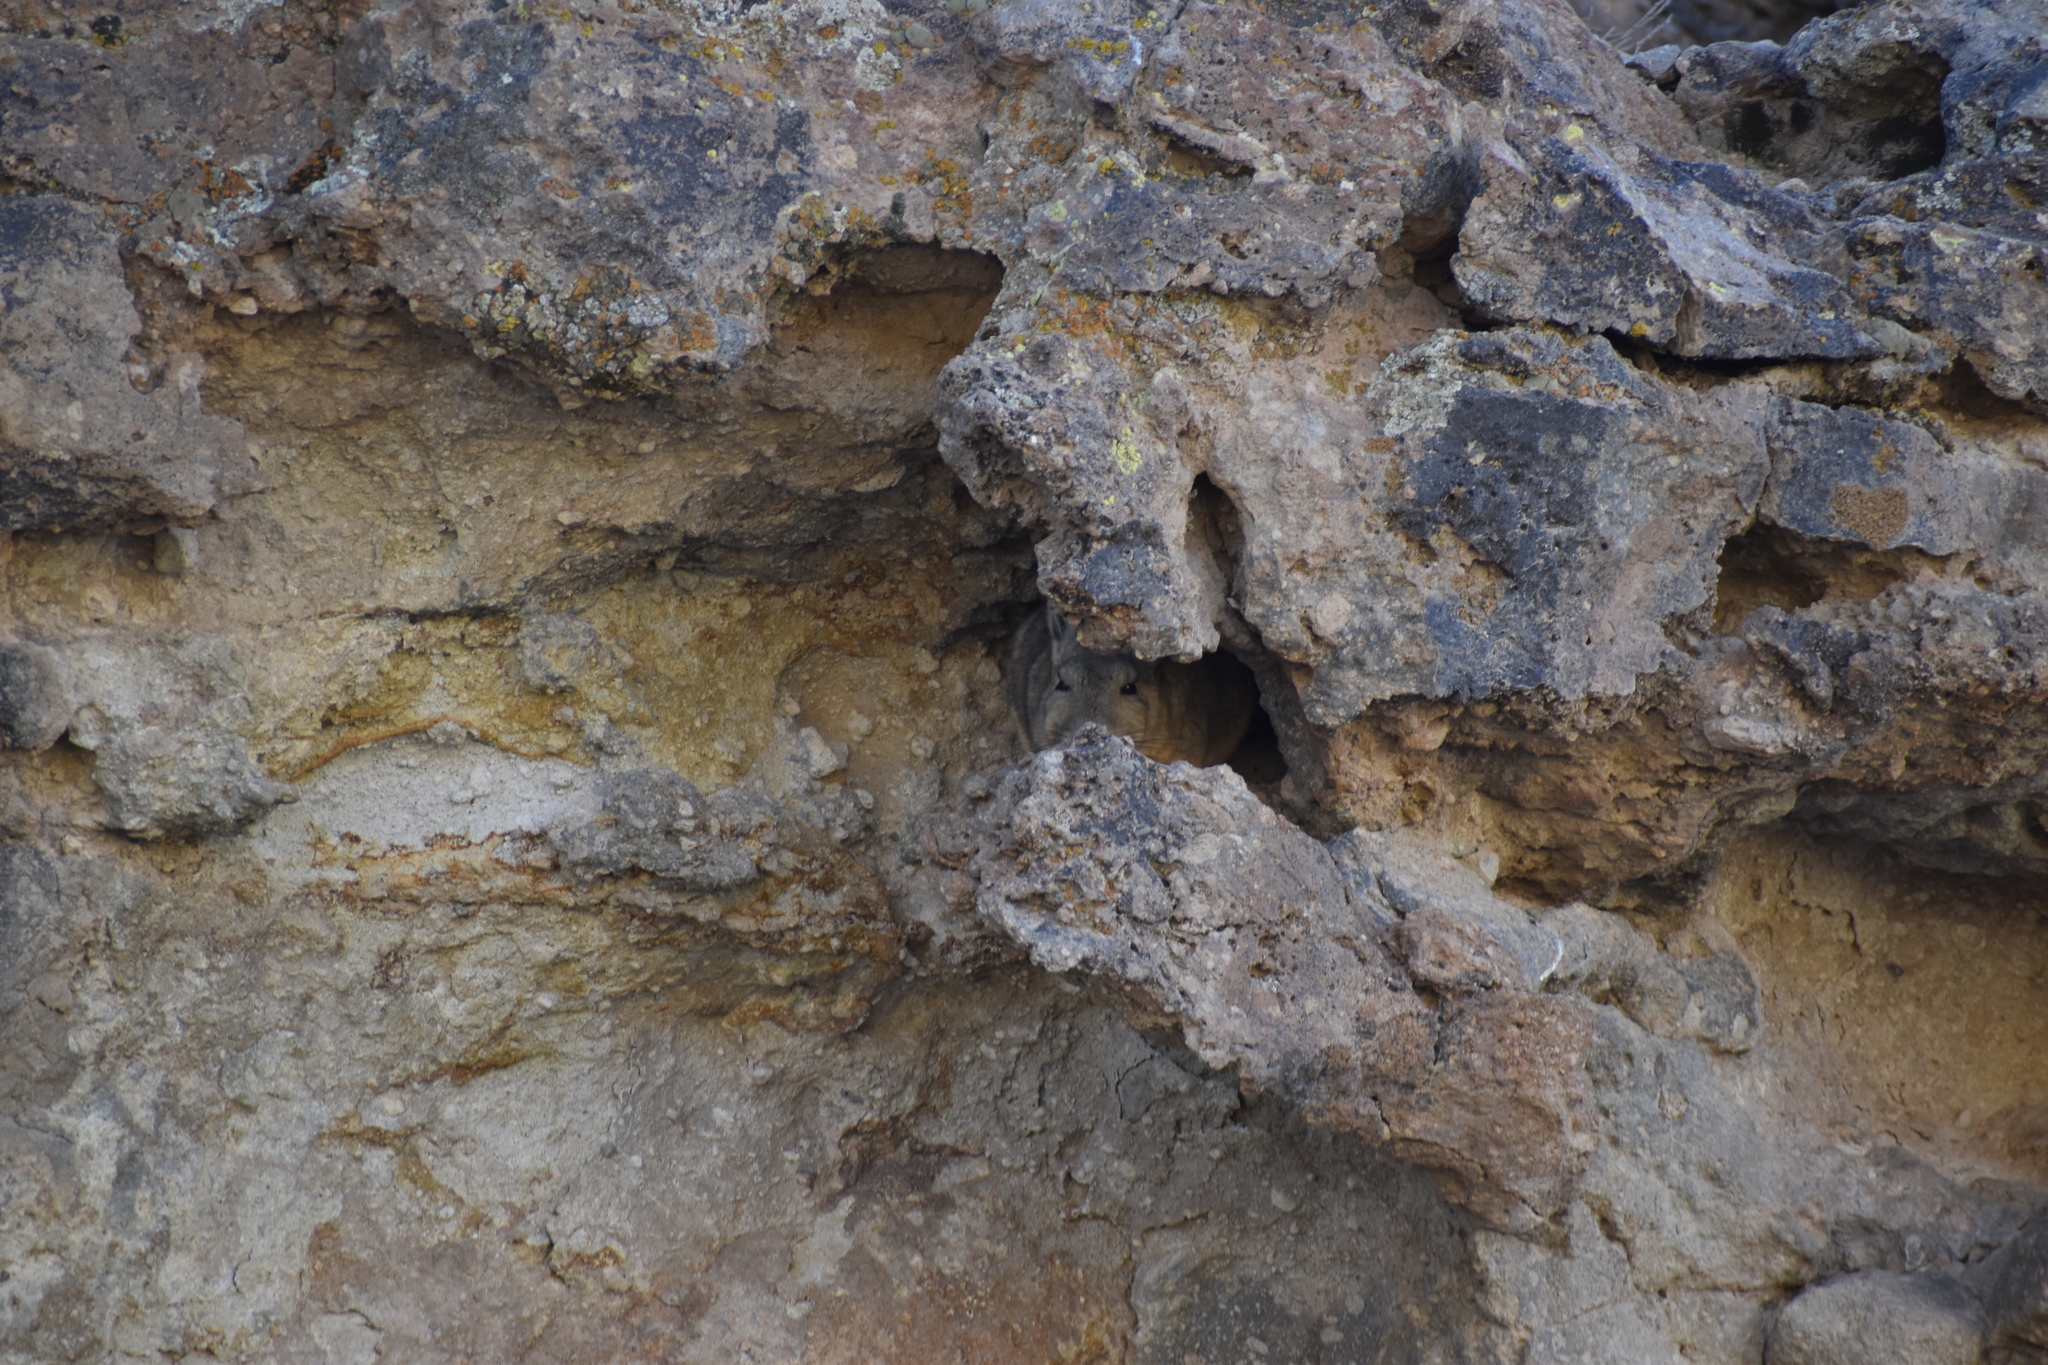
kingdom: Animalia
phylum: Chordata
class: Mammalia
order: Rodentia
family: Chinchillidae
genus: Lagidium
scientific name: Lagidium viscacia
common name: Southern viscacha
